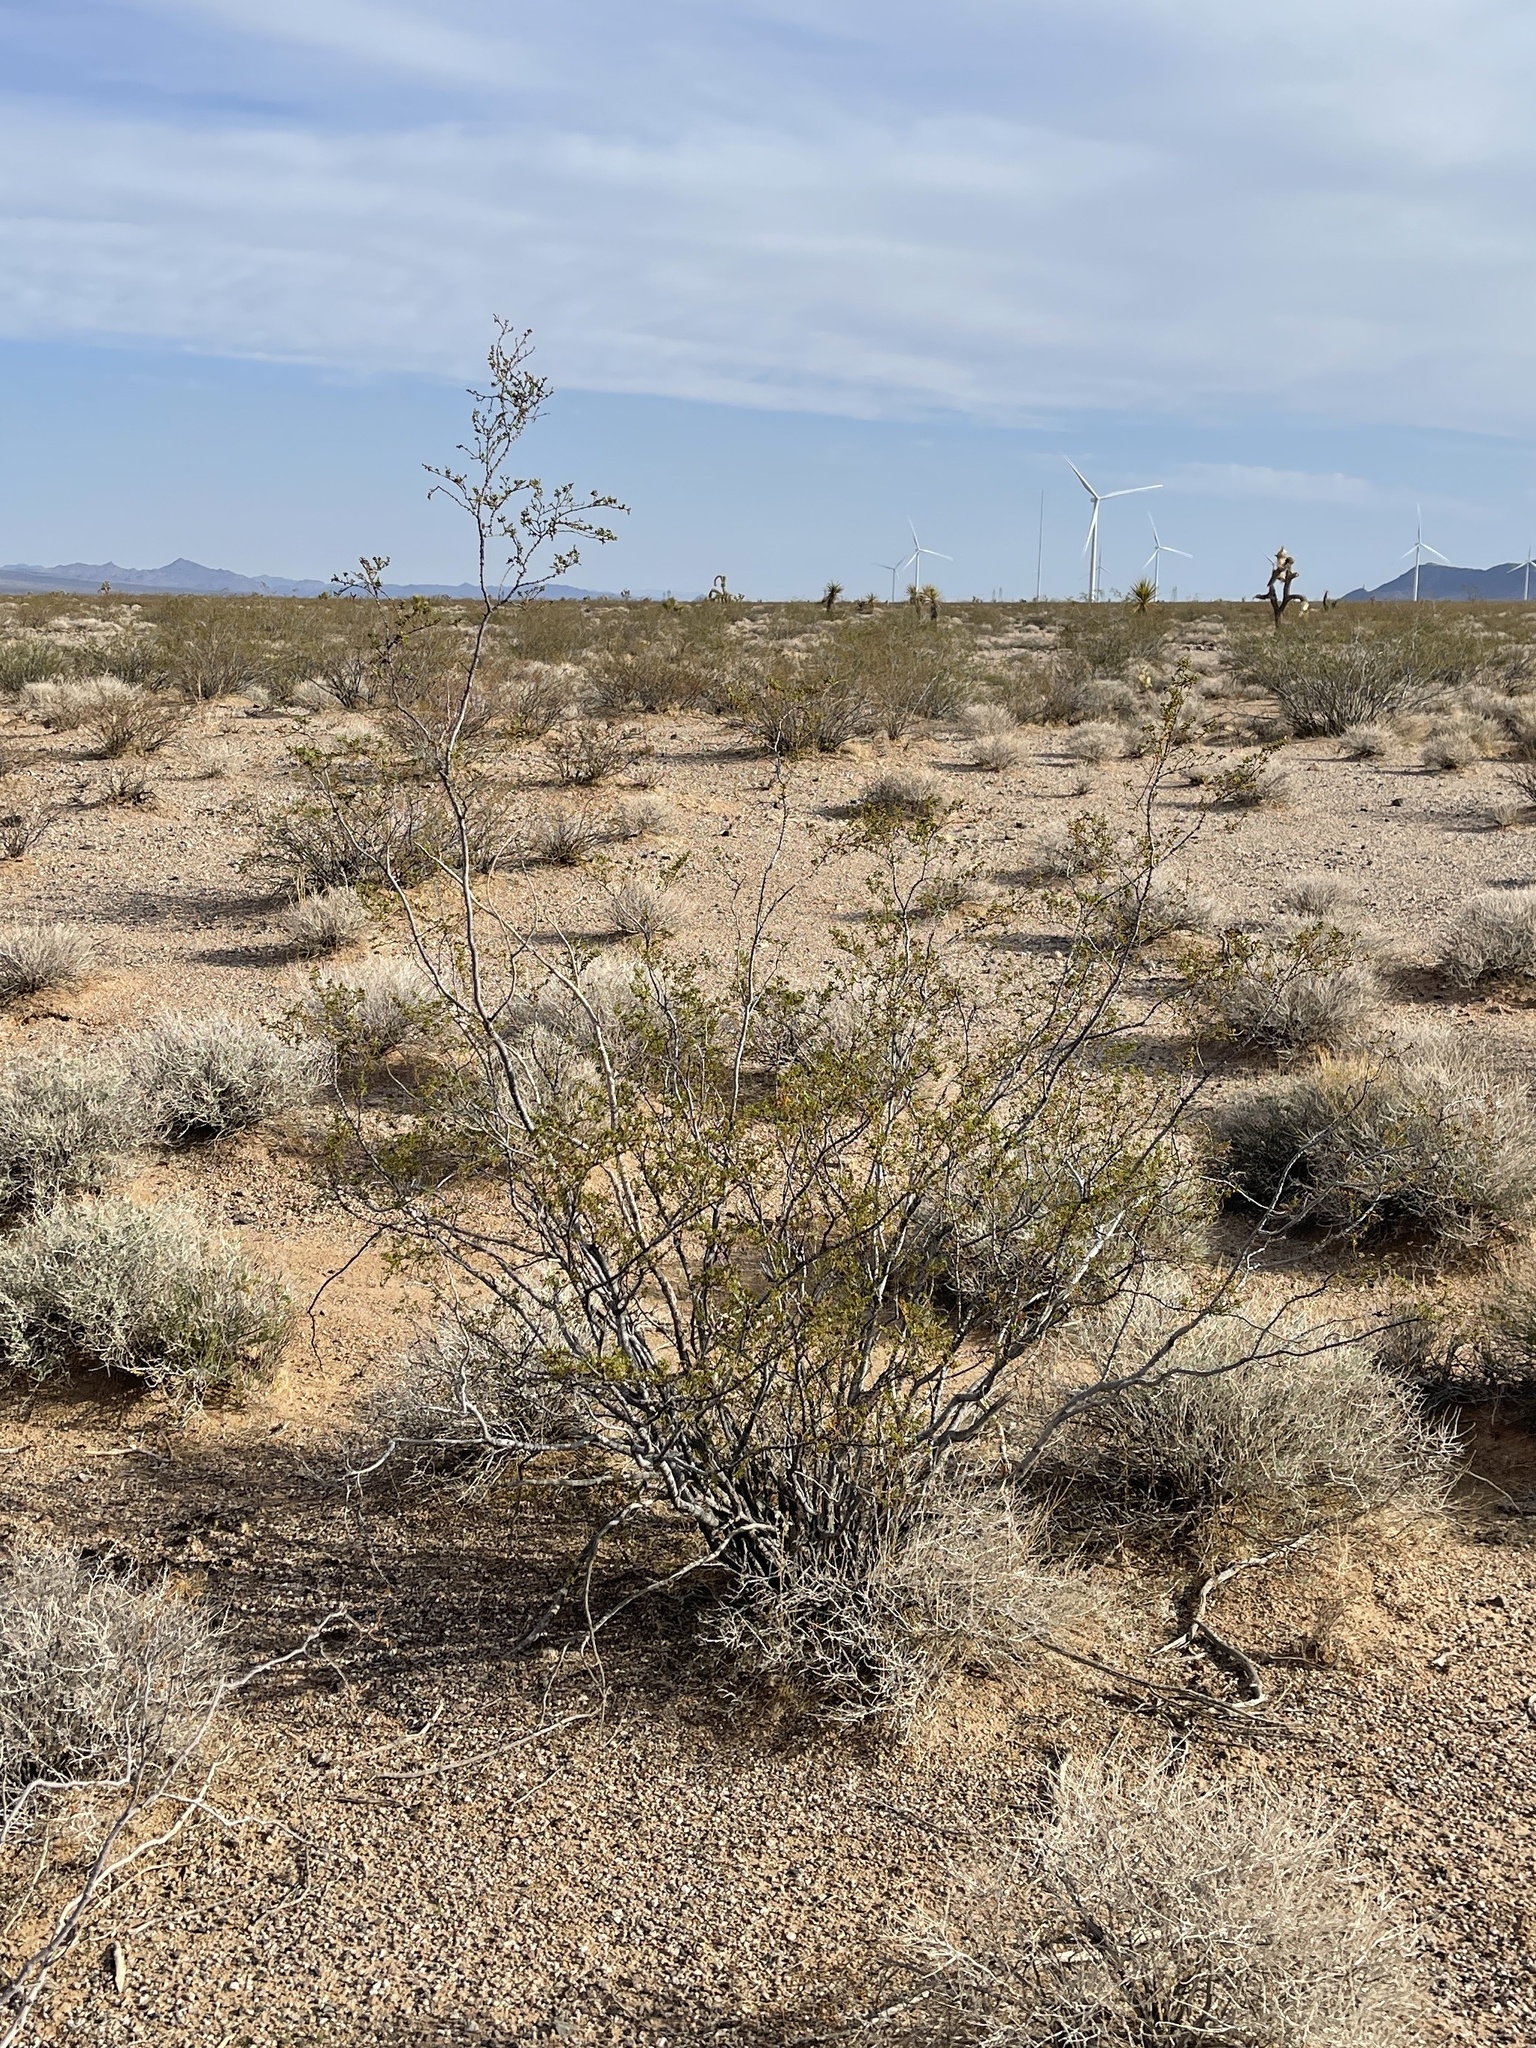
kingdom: Plantae
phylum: Tracheophyta
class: Magnoliopsida
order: Zygophyllales
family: Zygophyllaceae
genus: Larrea
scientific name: Larrea tridentata
